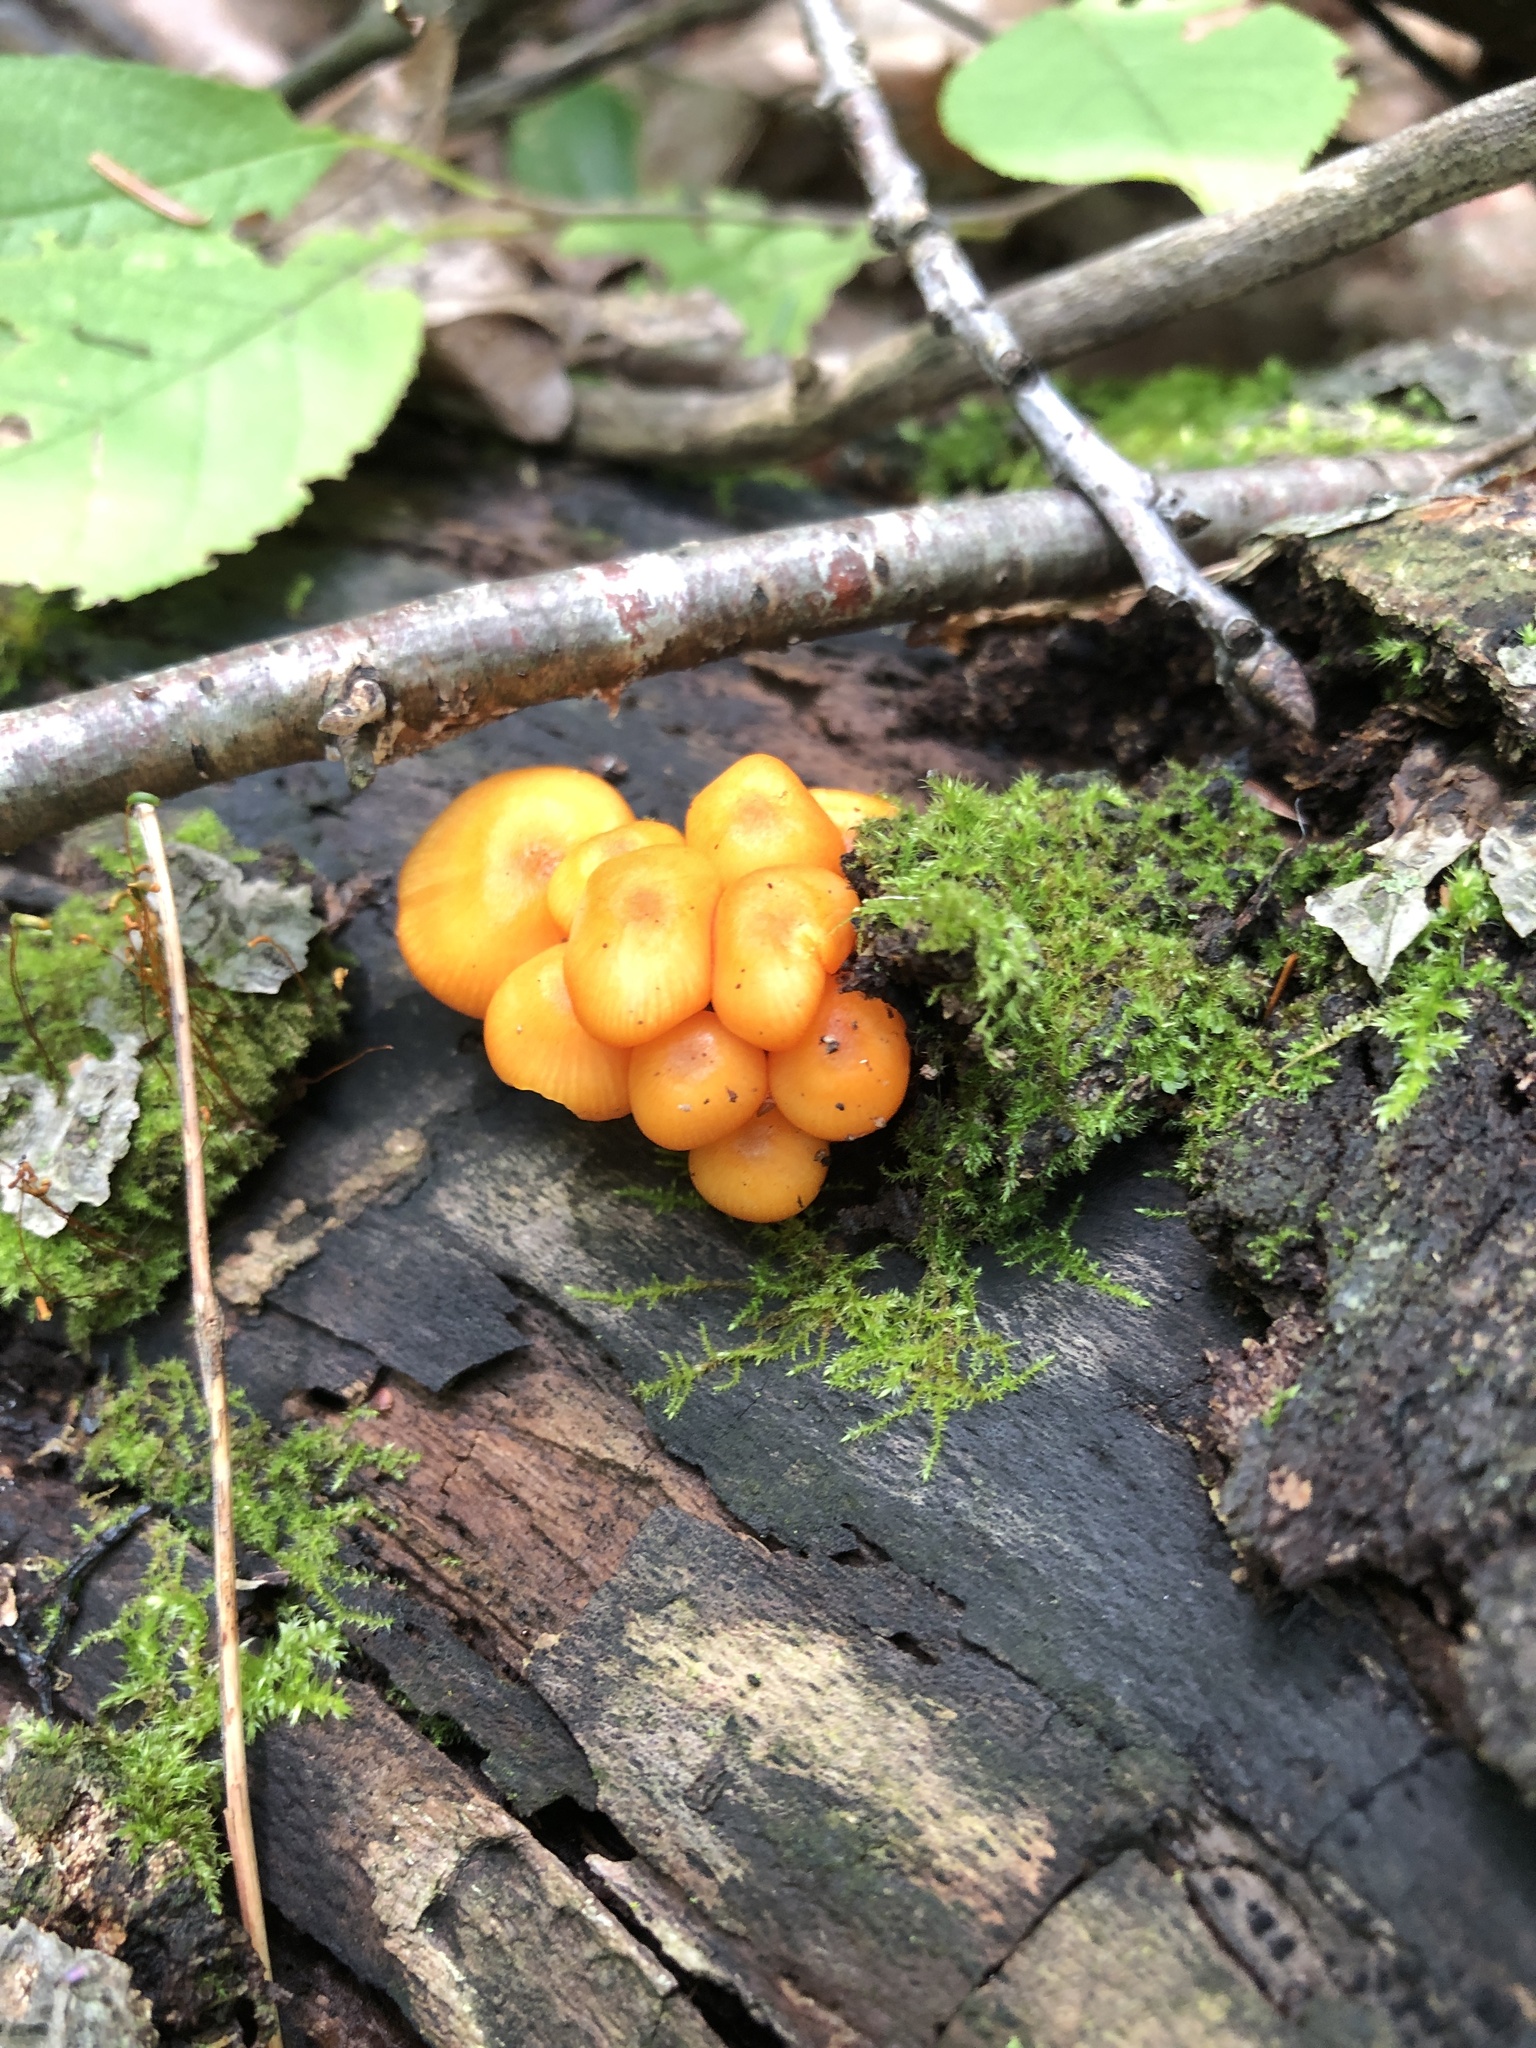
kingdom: Fungi
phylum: Basidiomycota
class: Agaricomycetes
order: Agaricales
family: Mycenaceae
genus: Mycena
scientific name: Mycena leaiana
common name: Orange mycena
